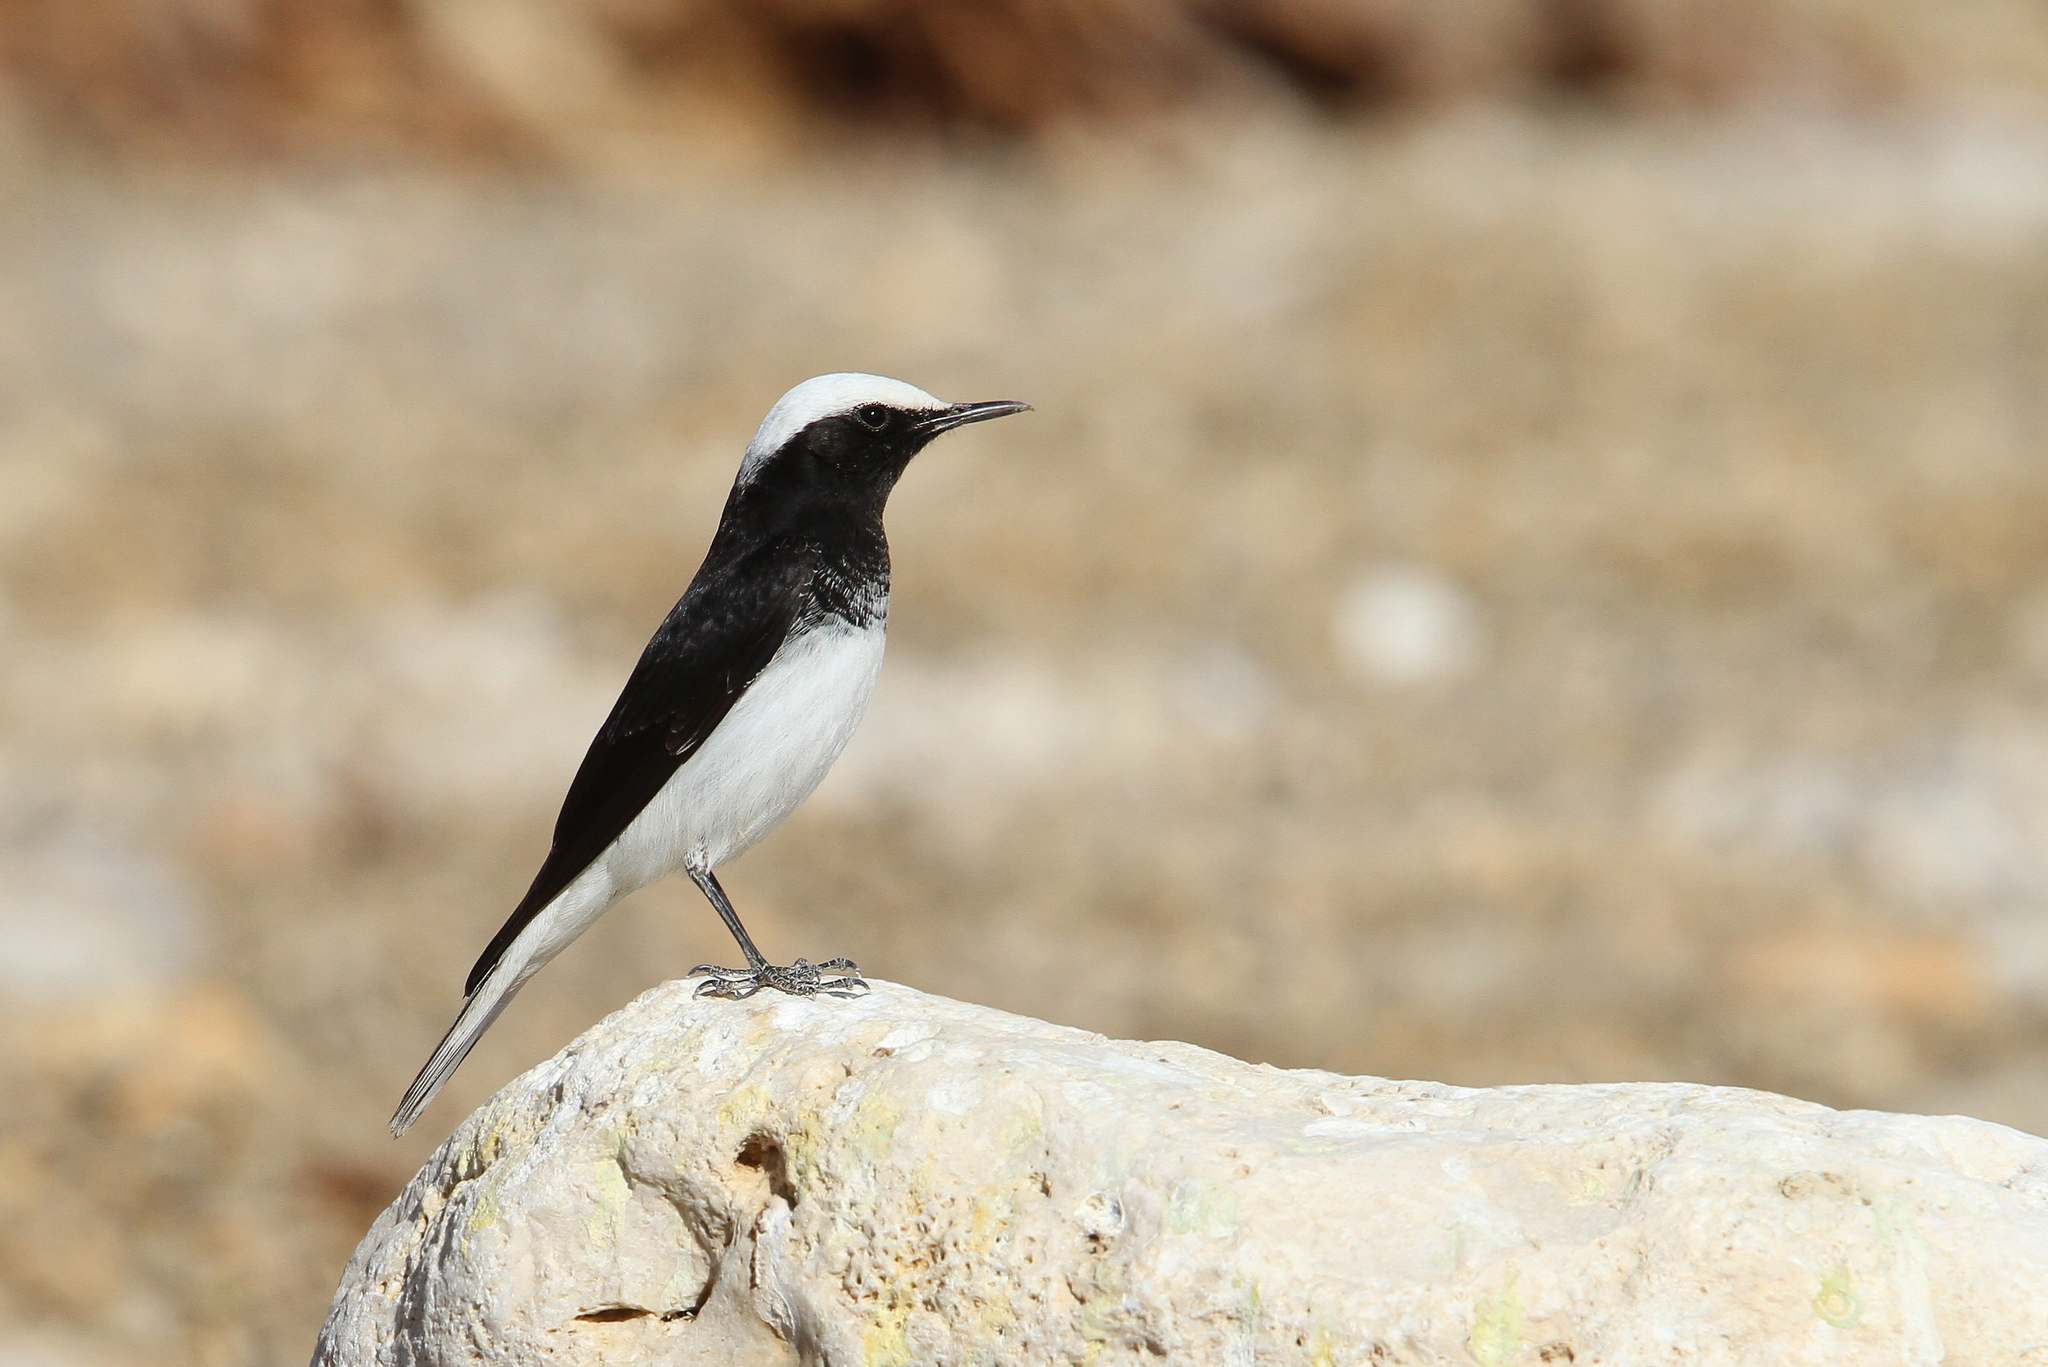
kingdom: Animalia
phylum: Chordata
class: Aves
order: Passeriformes
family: Muscicapidae
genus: Oenanthe
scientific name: Oenanthe monacha
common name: Hooded wheatear
